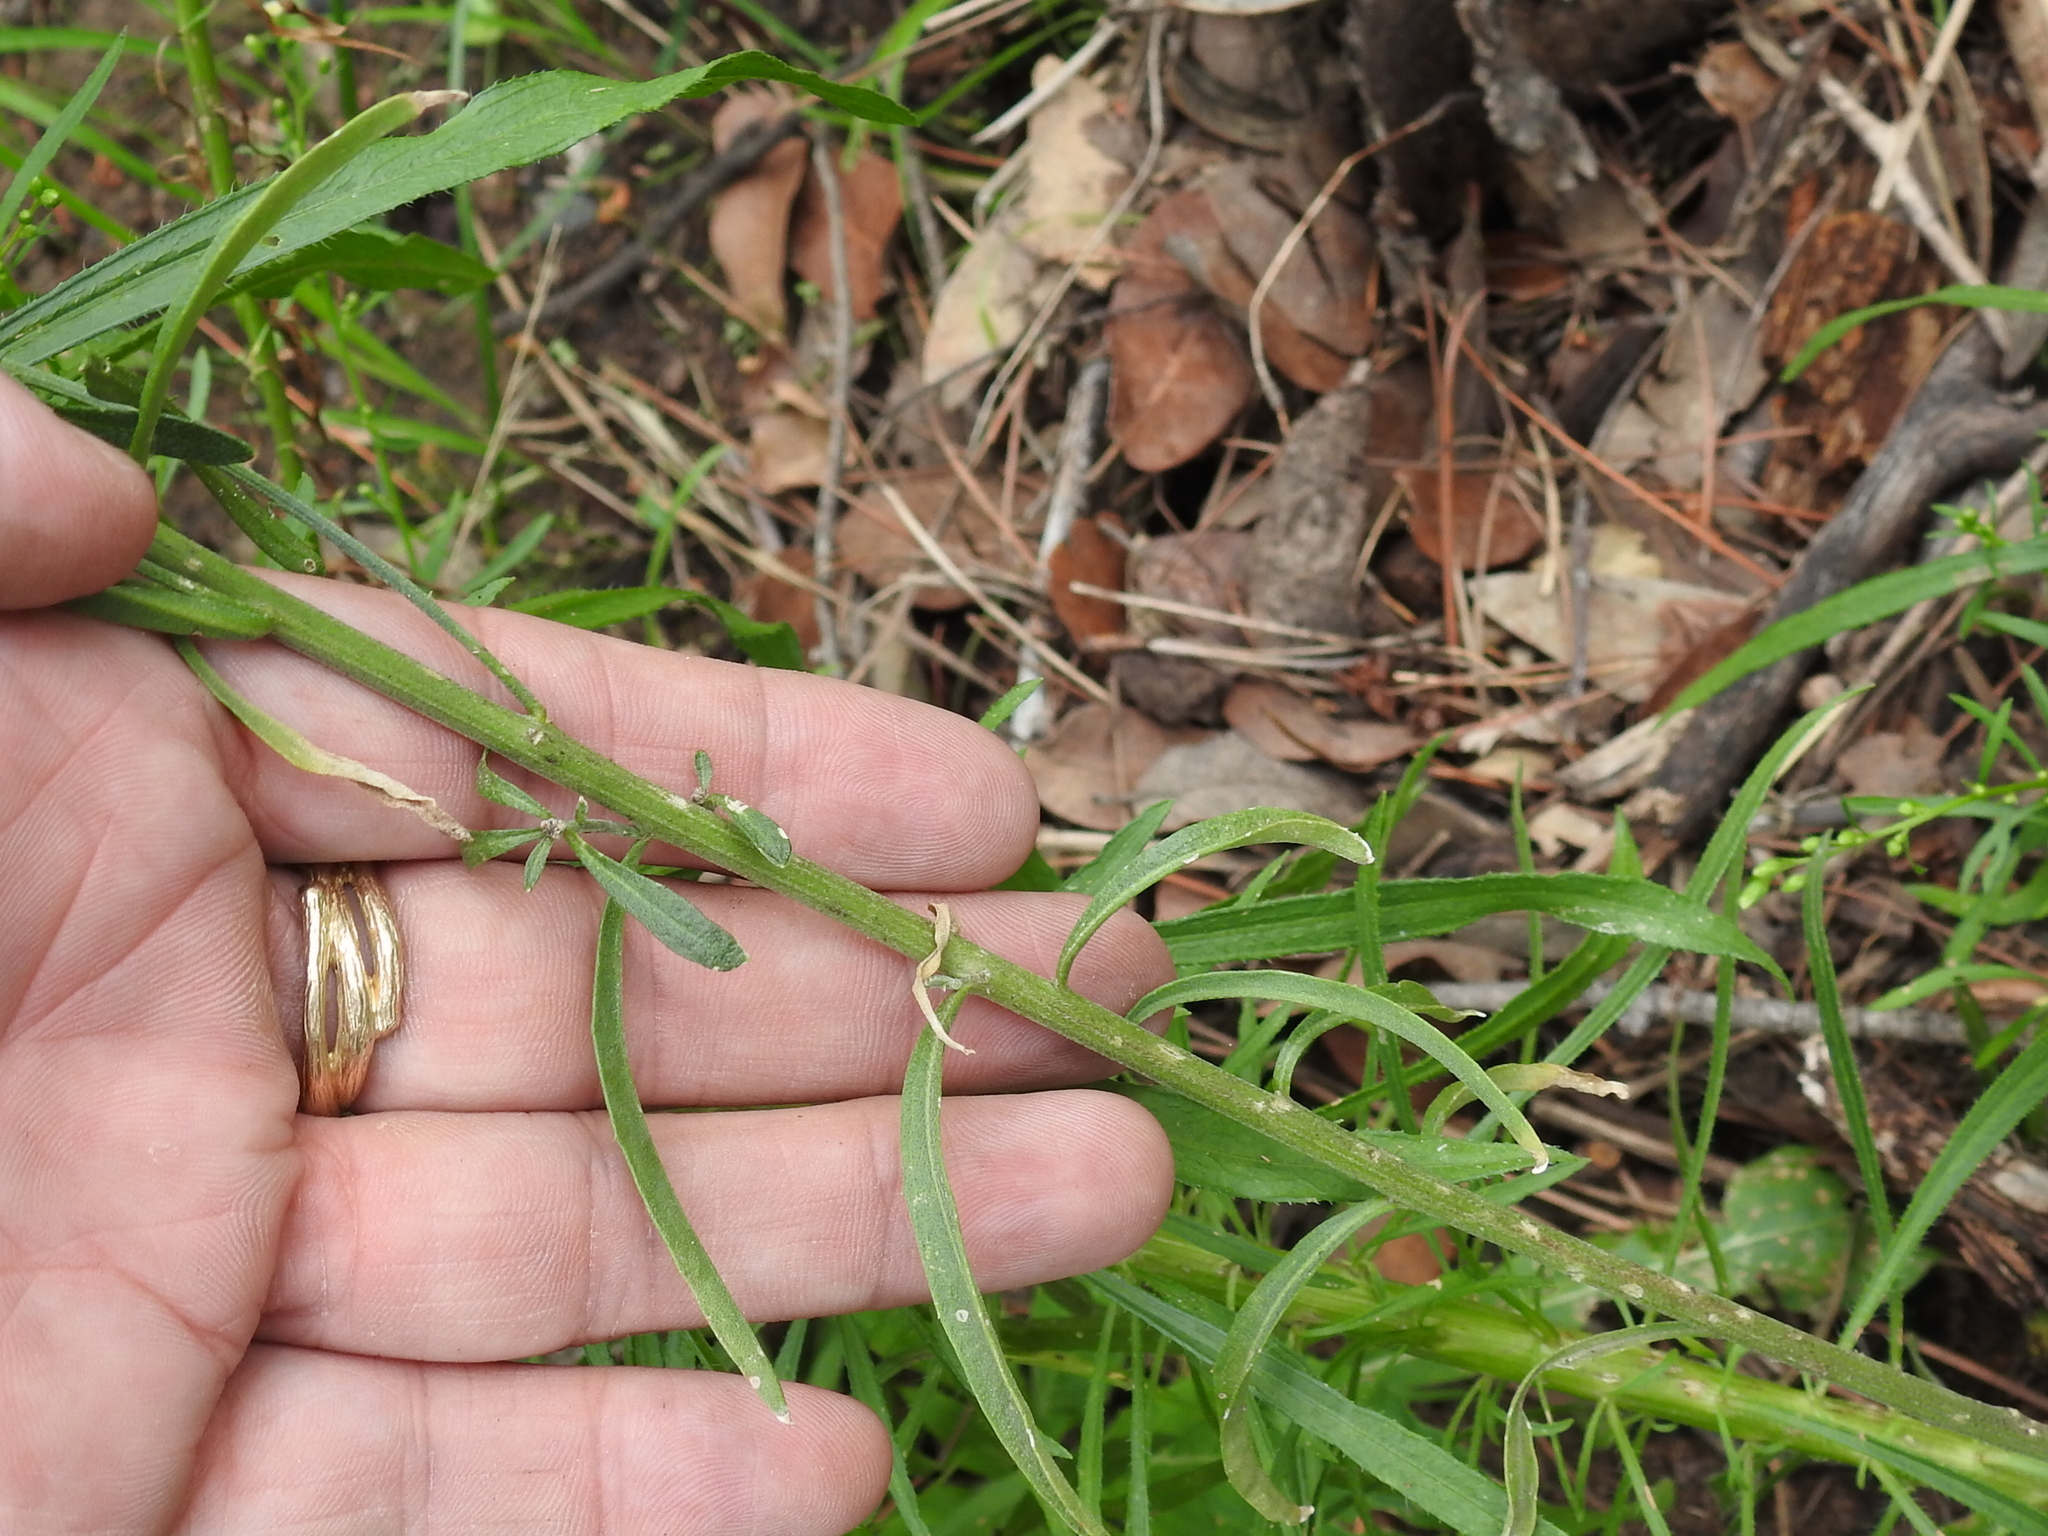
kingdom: Plantae
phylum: Tracheophyta
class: Magnoliopsida
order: Brassicales
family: Brassicaceae
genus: Erysimum
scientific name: Erysimum capitatum
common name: Western wallflower
